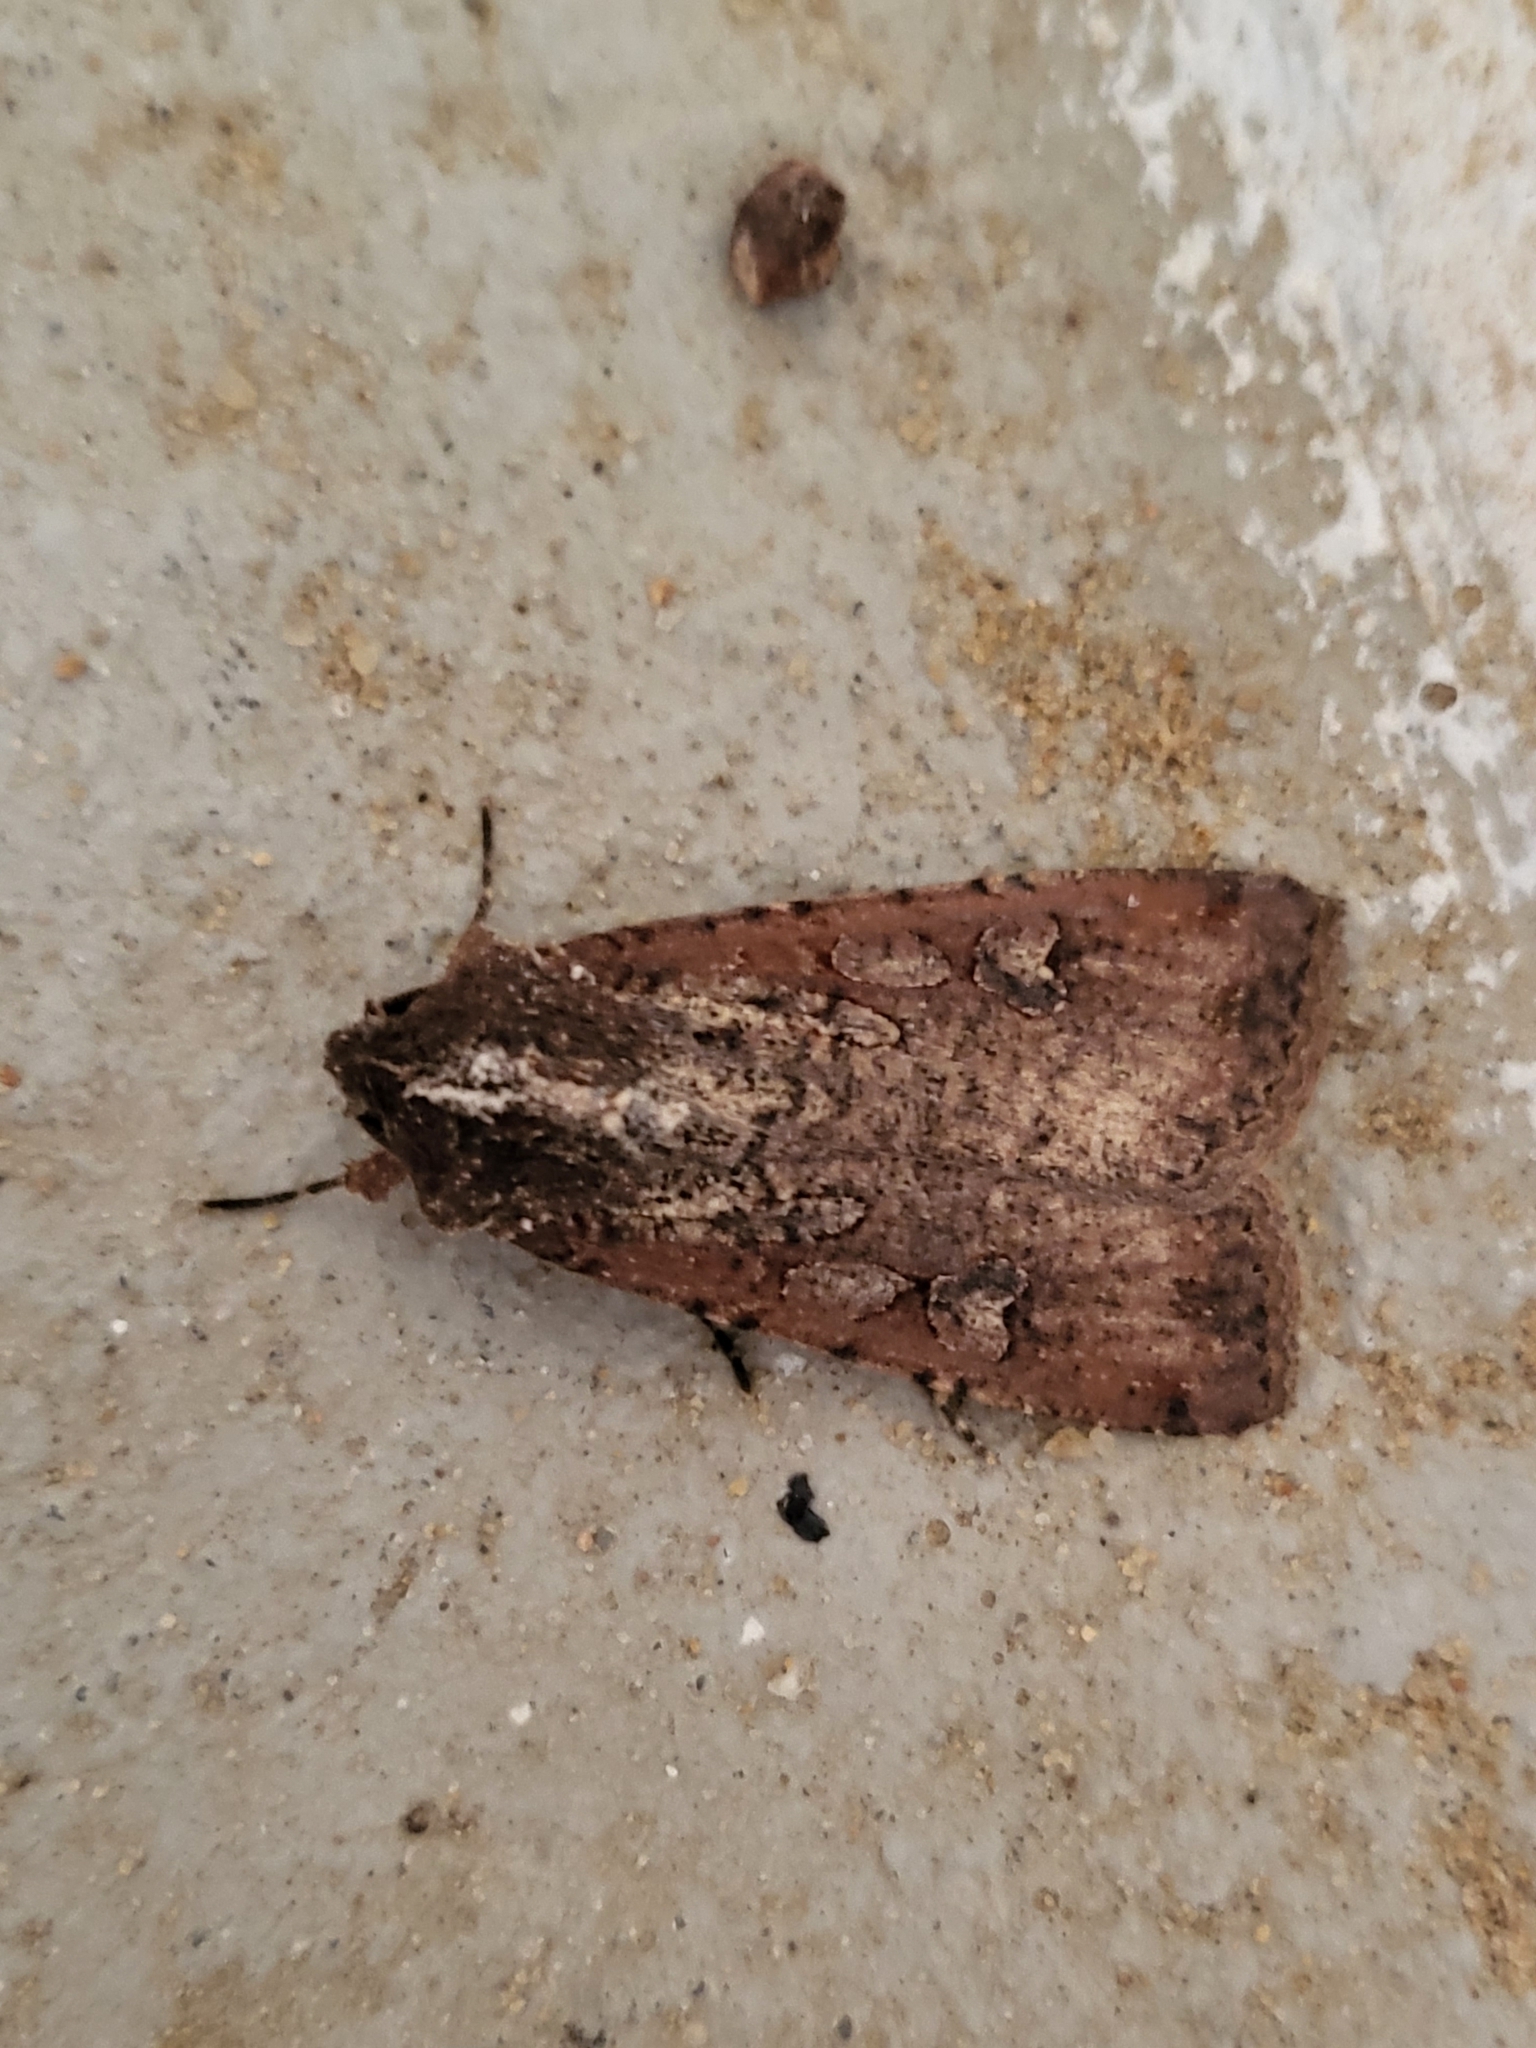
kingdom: Animalia
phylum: Arthropoda
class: Insecta
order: Lepidoptera
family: Noctuidae
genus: Peridroma
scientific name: Peridroma saucia
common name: Pearly underwing
